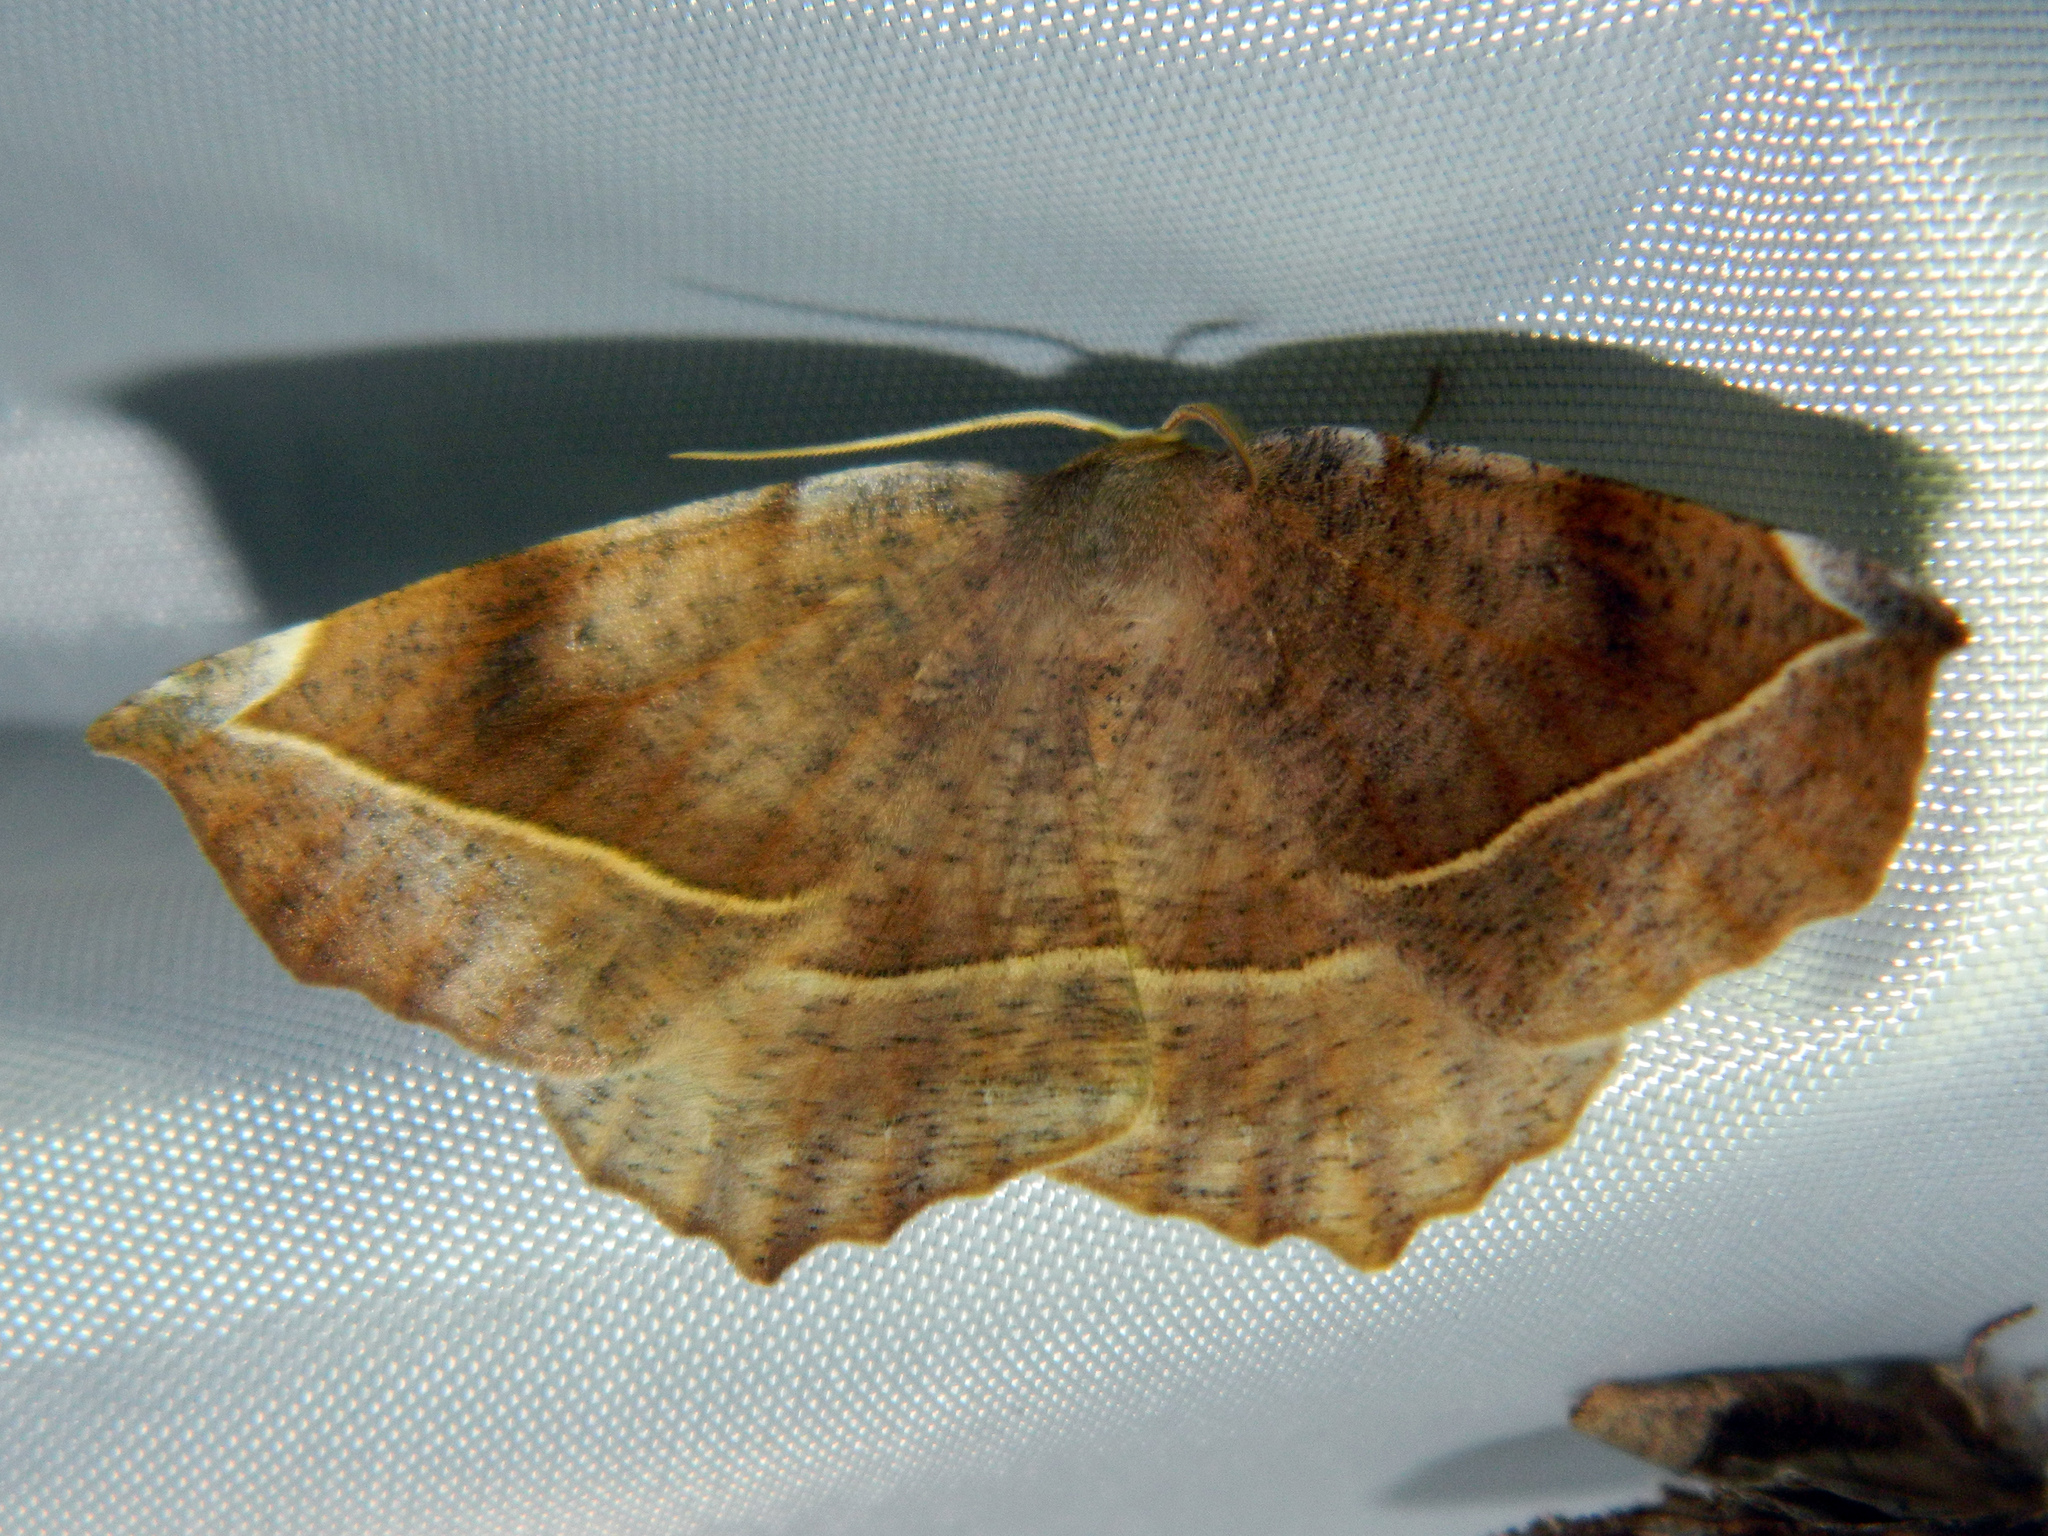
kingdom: Animalia
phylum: Arthropoda
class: Insecta
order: Lepidoptera
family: Geometridae
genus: Eutrapela
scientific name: Eutrapela clemataria
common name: Curved-toothed geometer
